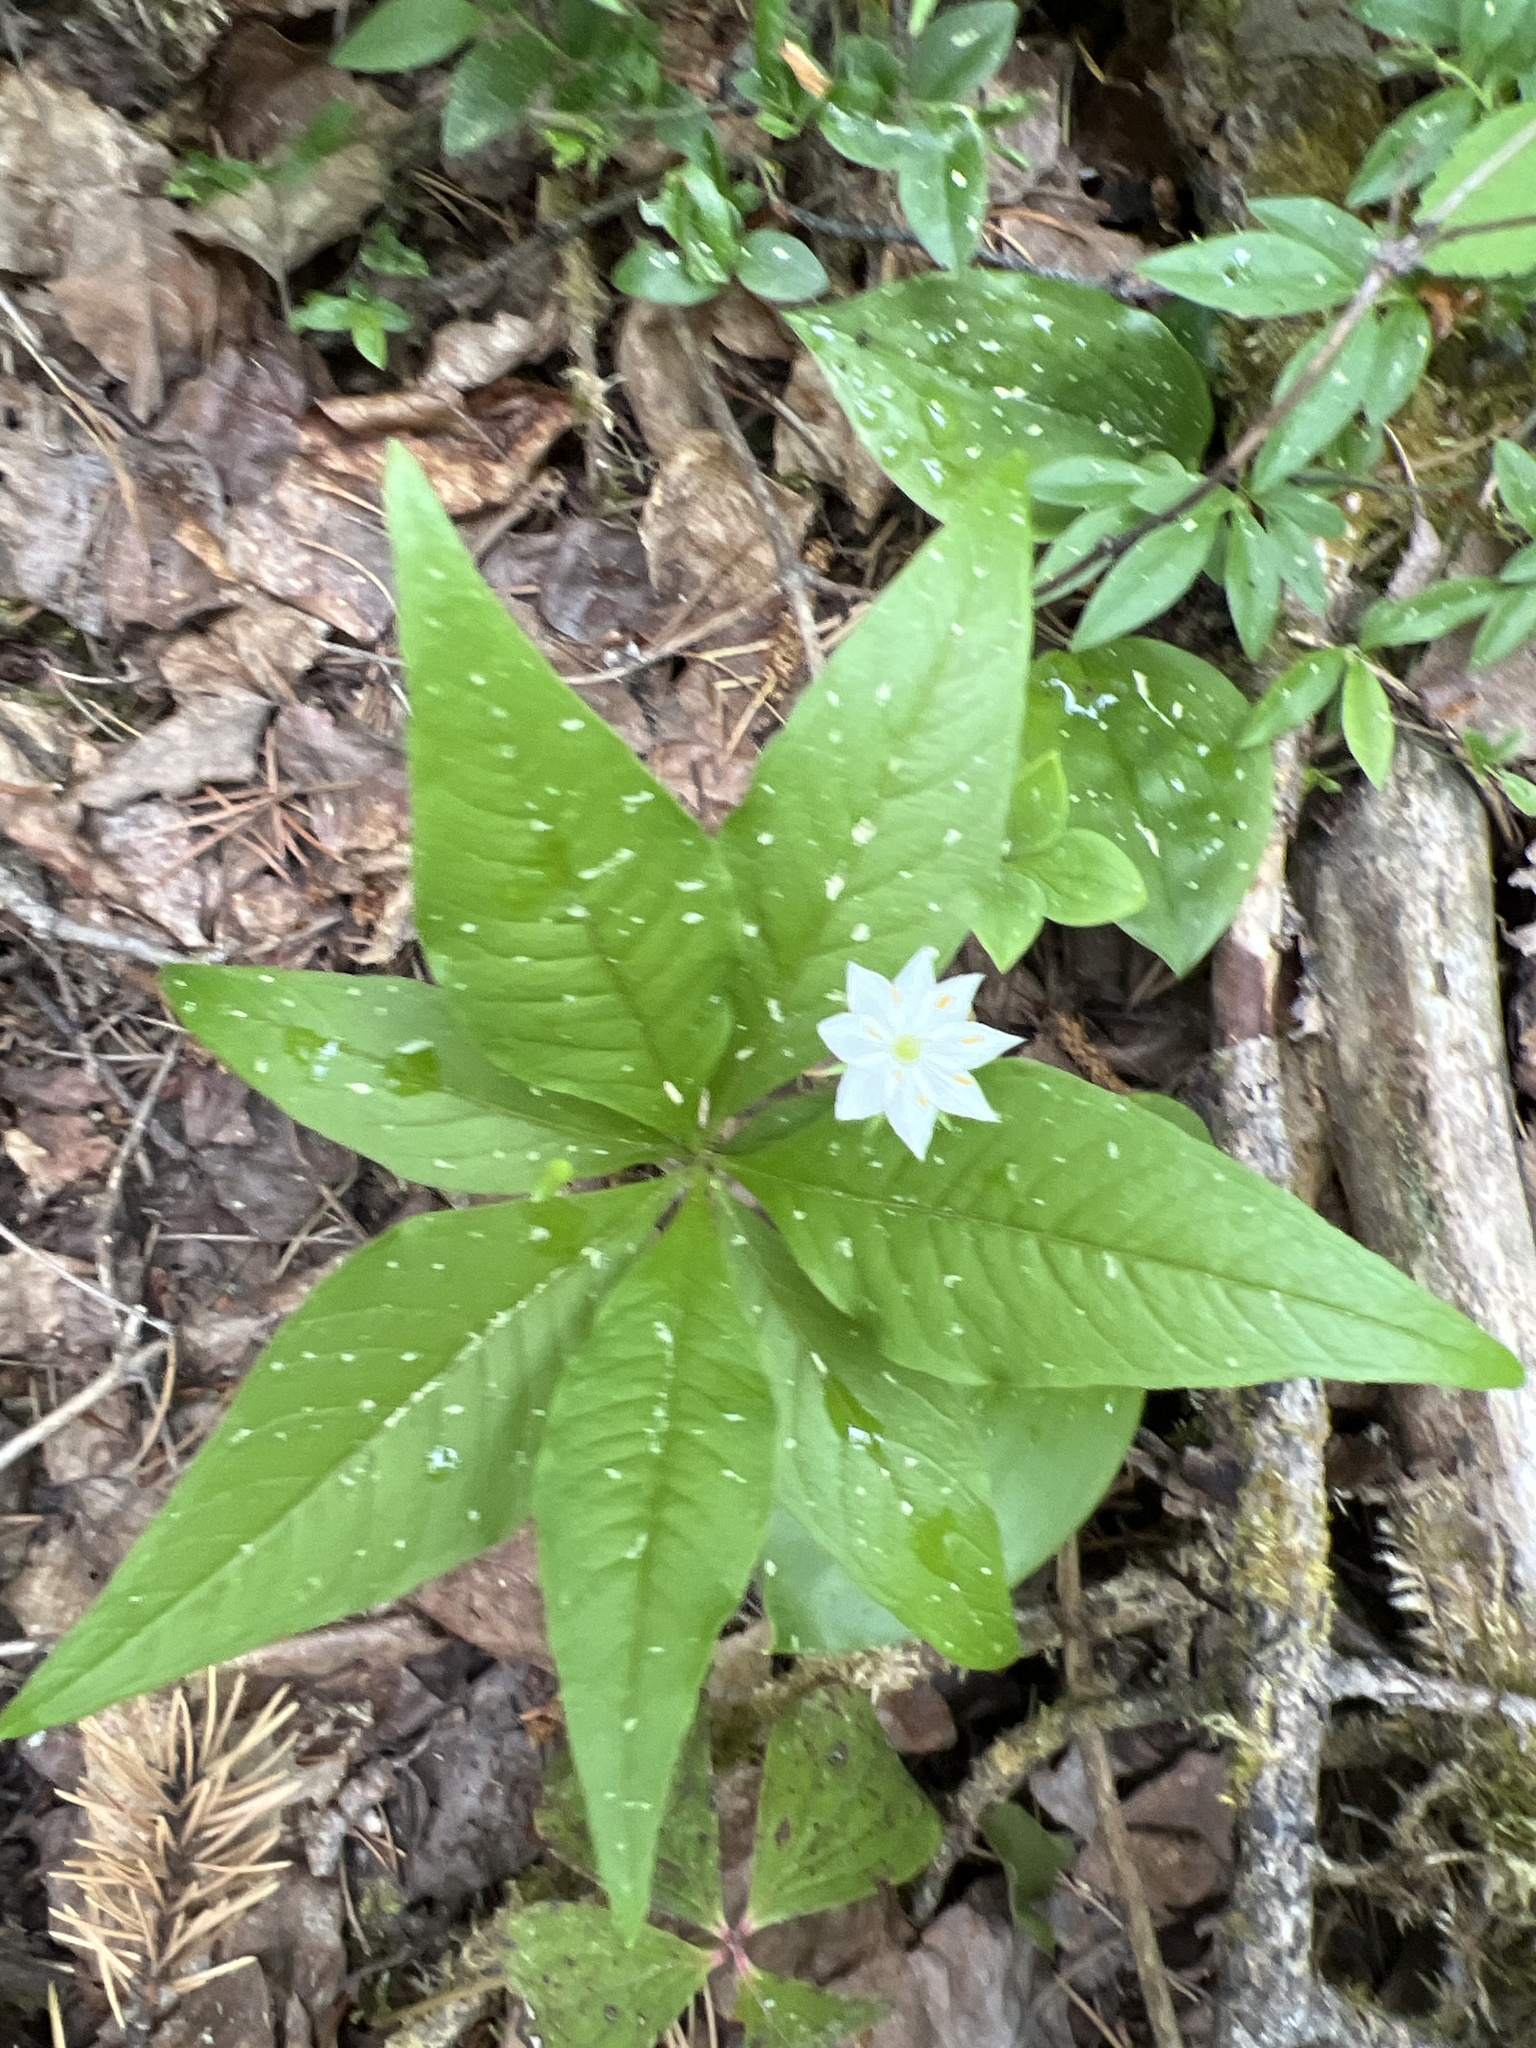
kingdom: Plantae
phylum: Tracheophyta
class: Magnoliopsida
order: Ericales
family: Primulaceae
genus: Lysimachia
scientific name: Lysimachia borealis
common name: American starflower
